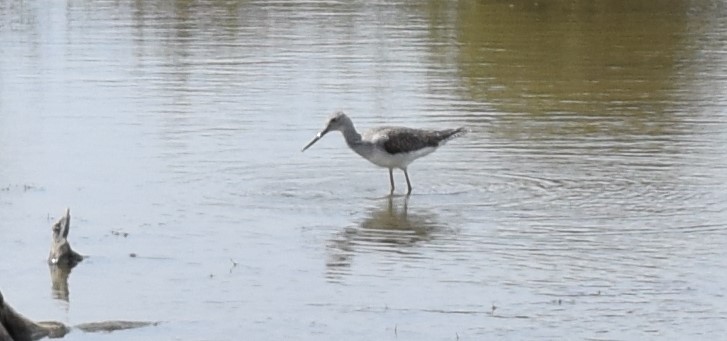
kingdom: Animalia
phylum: Chordata
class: Aves
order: Charadriiformes
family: Scolopacidae
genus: Tringa
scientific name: Tringa melanoleuca
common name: Greater yellowlegs
